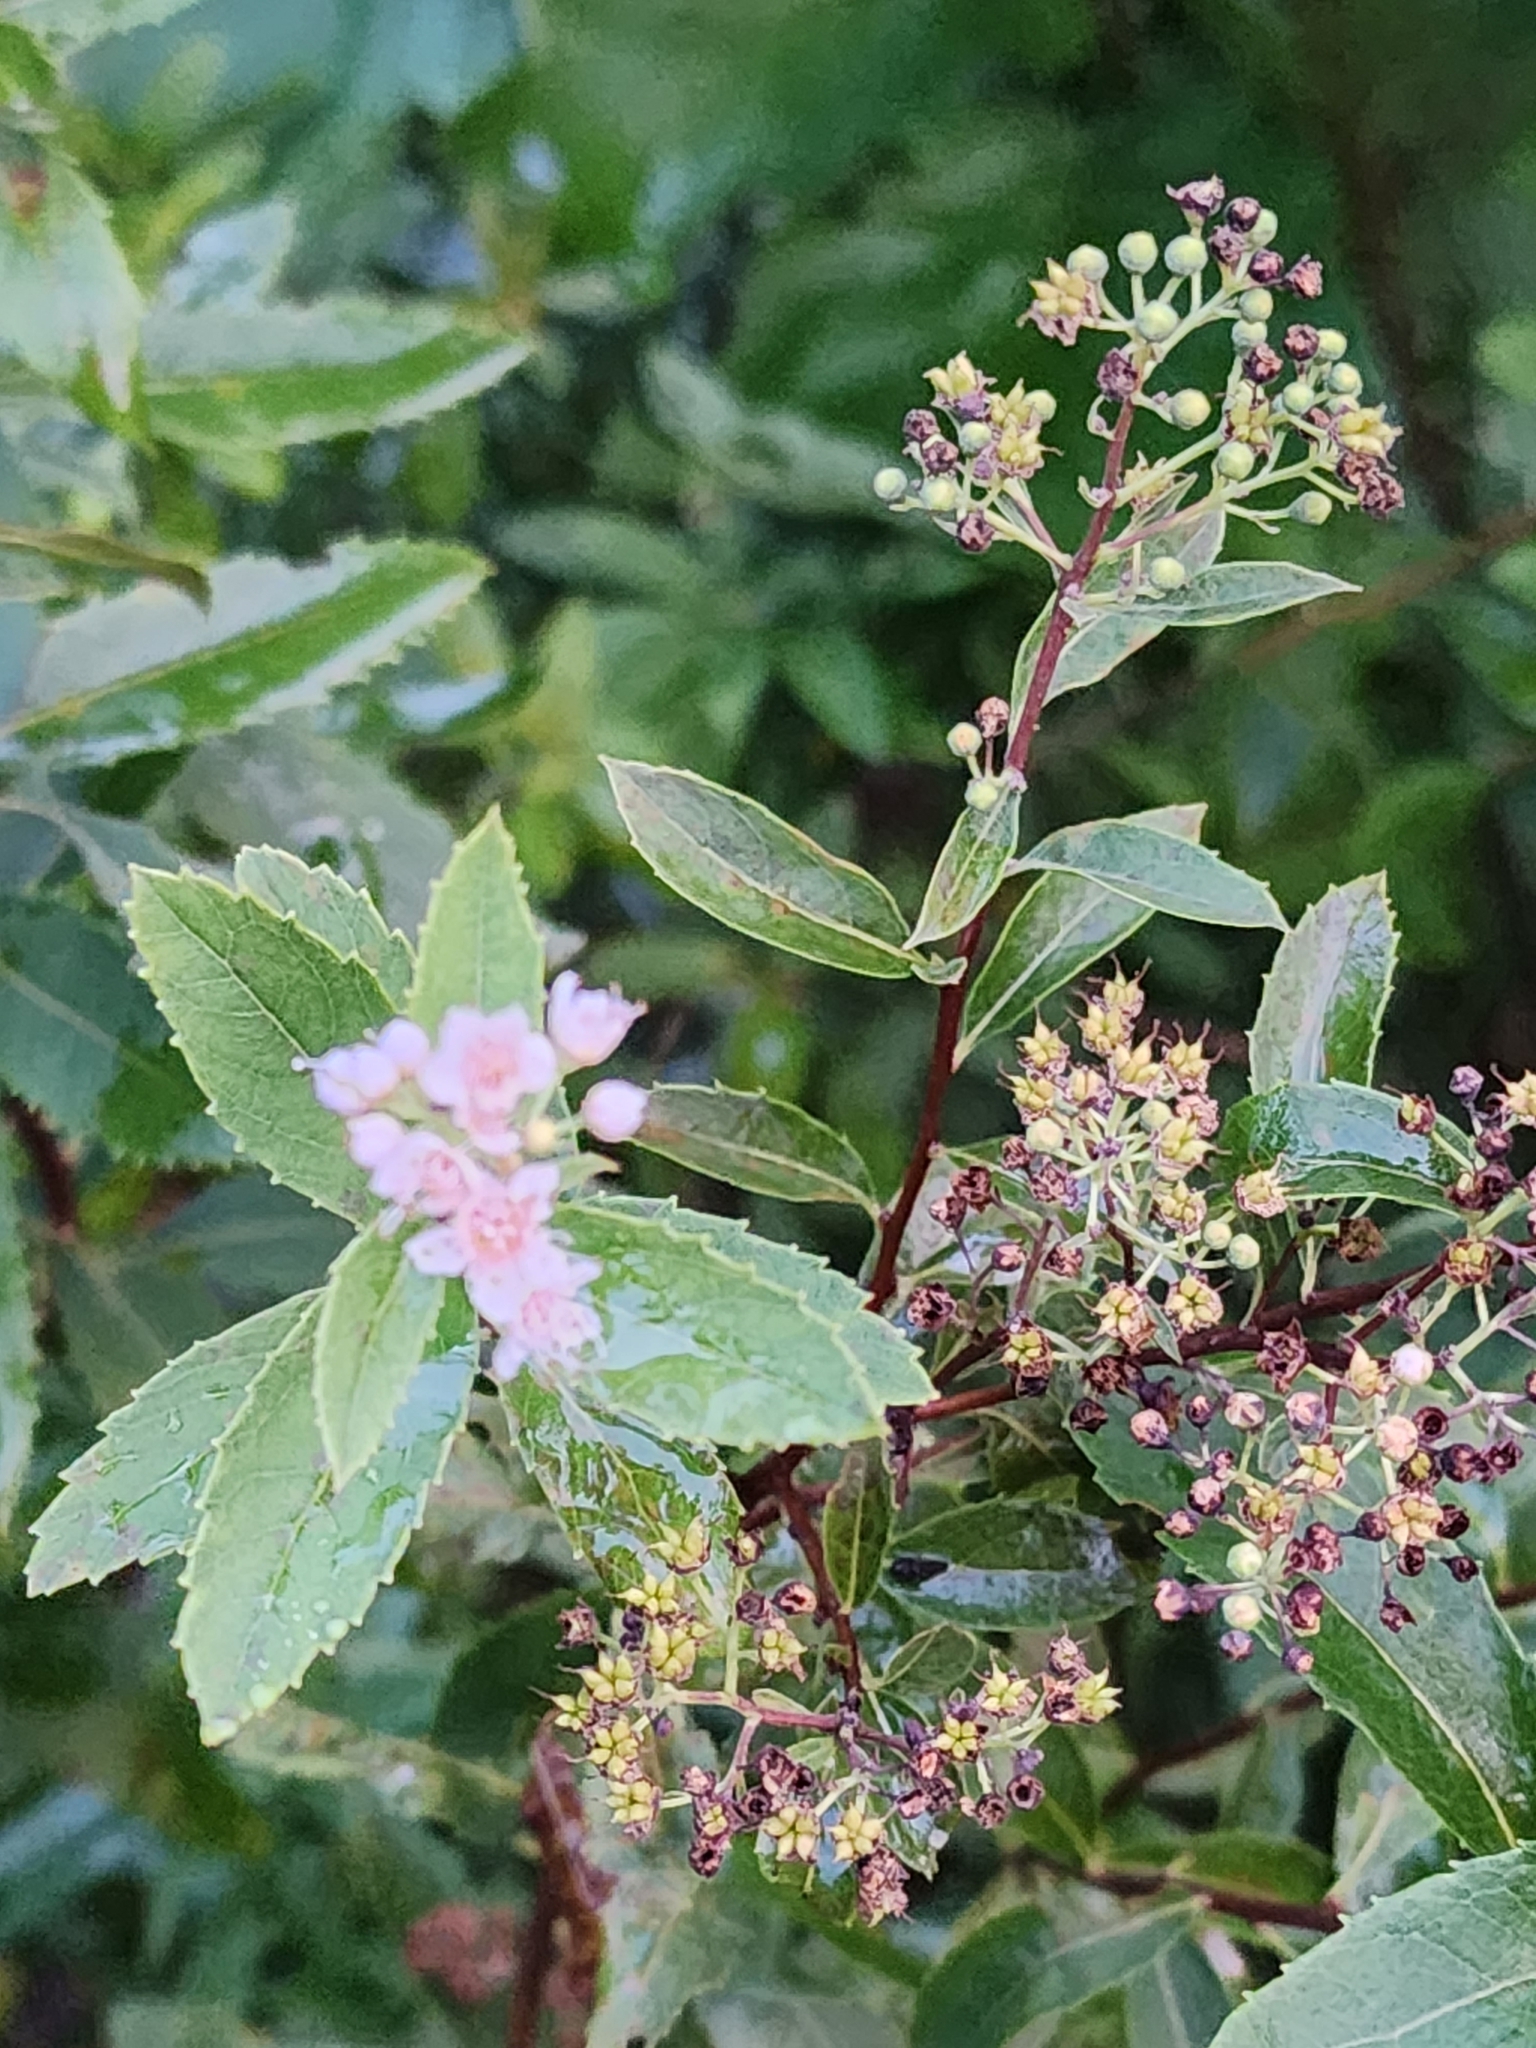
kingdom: Plantae
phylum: Tracheophyta
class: Magnoliopsida
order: Rosales
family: Rosaceae
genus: Spiraea
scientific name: Spiraea alba
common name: Pale bridewort
